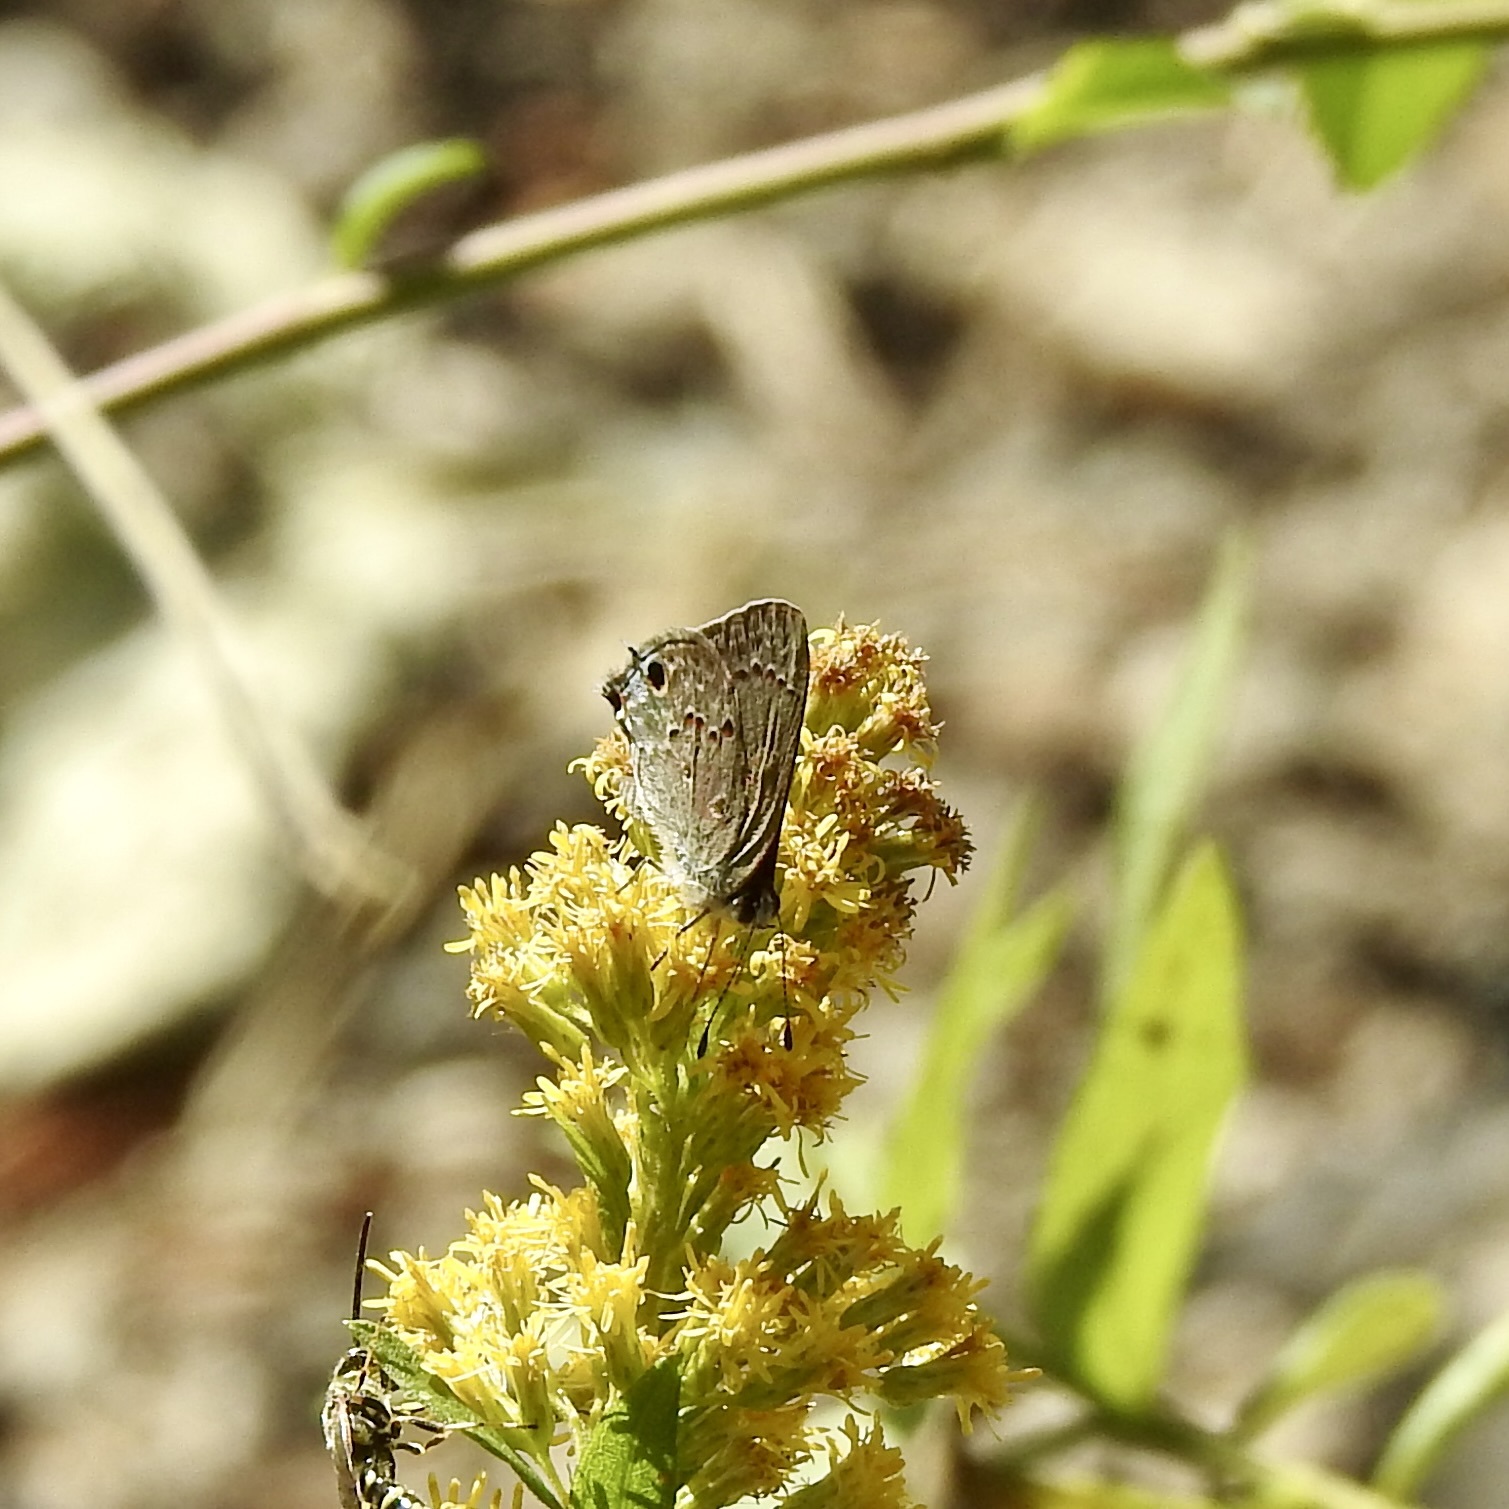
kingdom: Animalia
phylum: Arthropoda
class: Insecta
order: Lepidoptera
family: Lycaenidae
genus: Callicista
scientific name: Callicista columella
